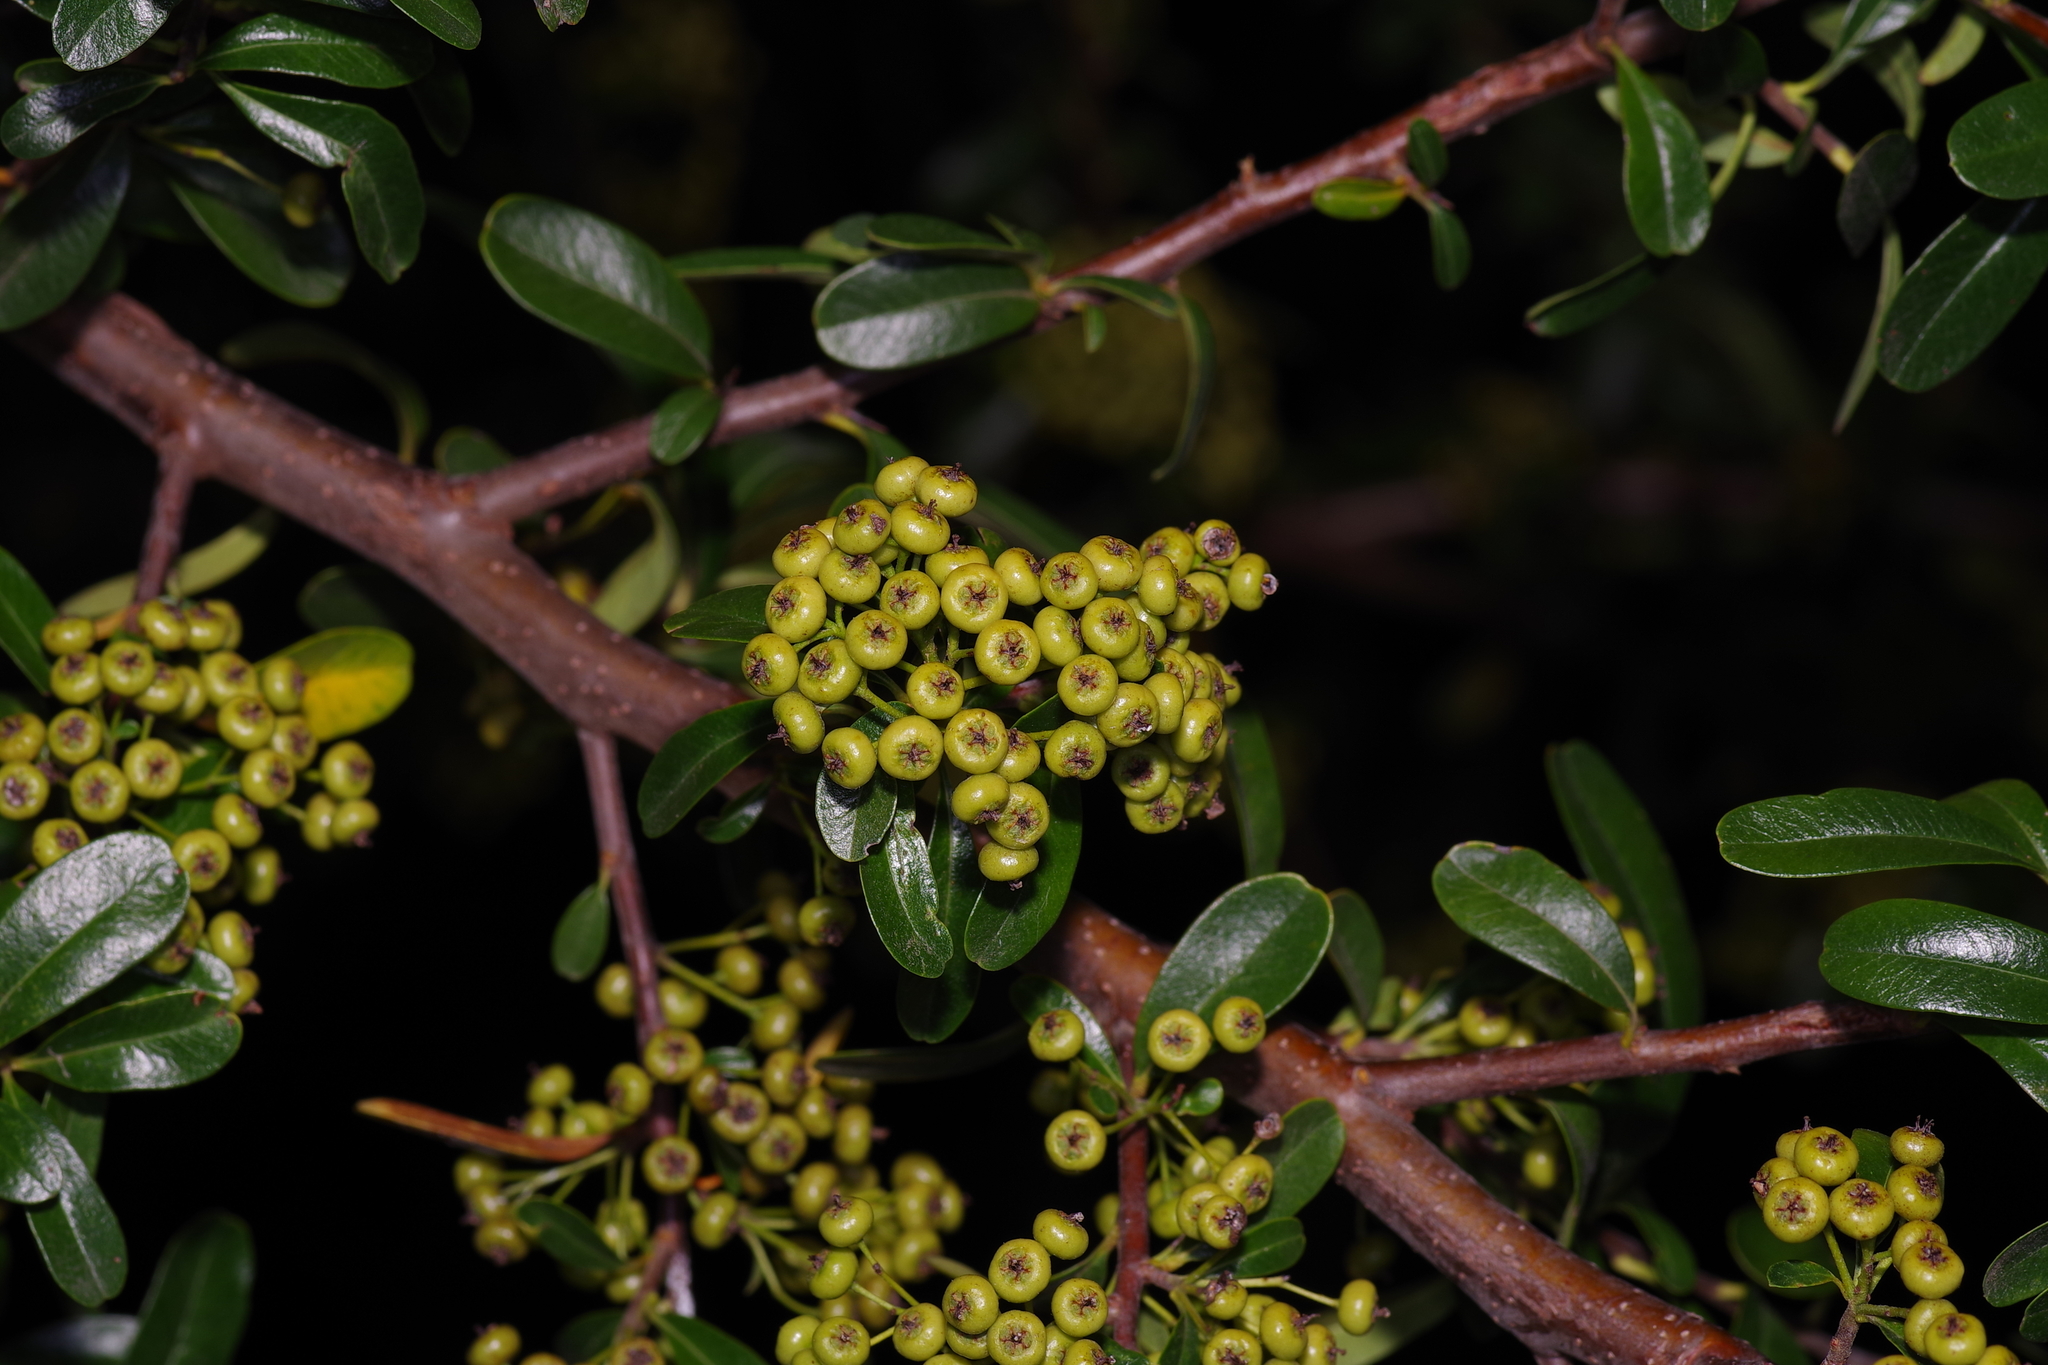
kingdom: Plantae
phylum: Tracheophyta
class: Magnoliopsida
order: Rosales
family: Rosaceae
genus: Pyracantha
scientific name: Pyracantha coccinea
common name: Firethorn
